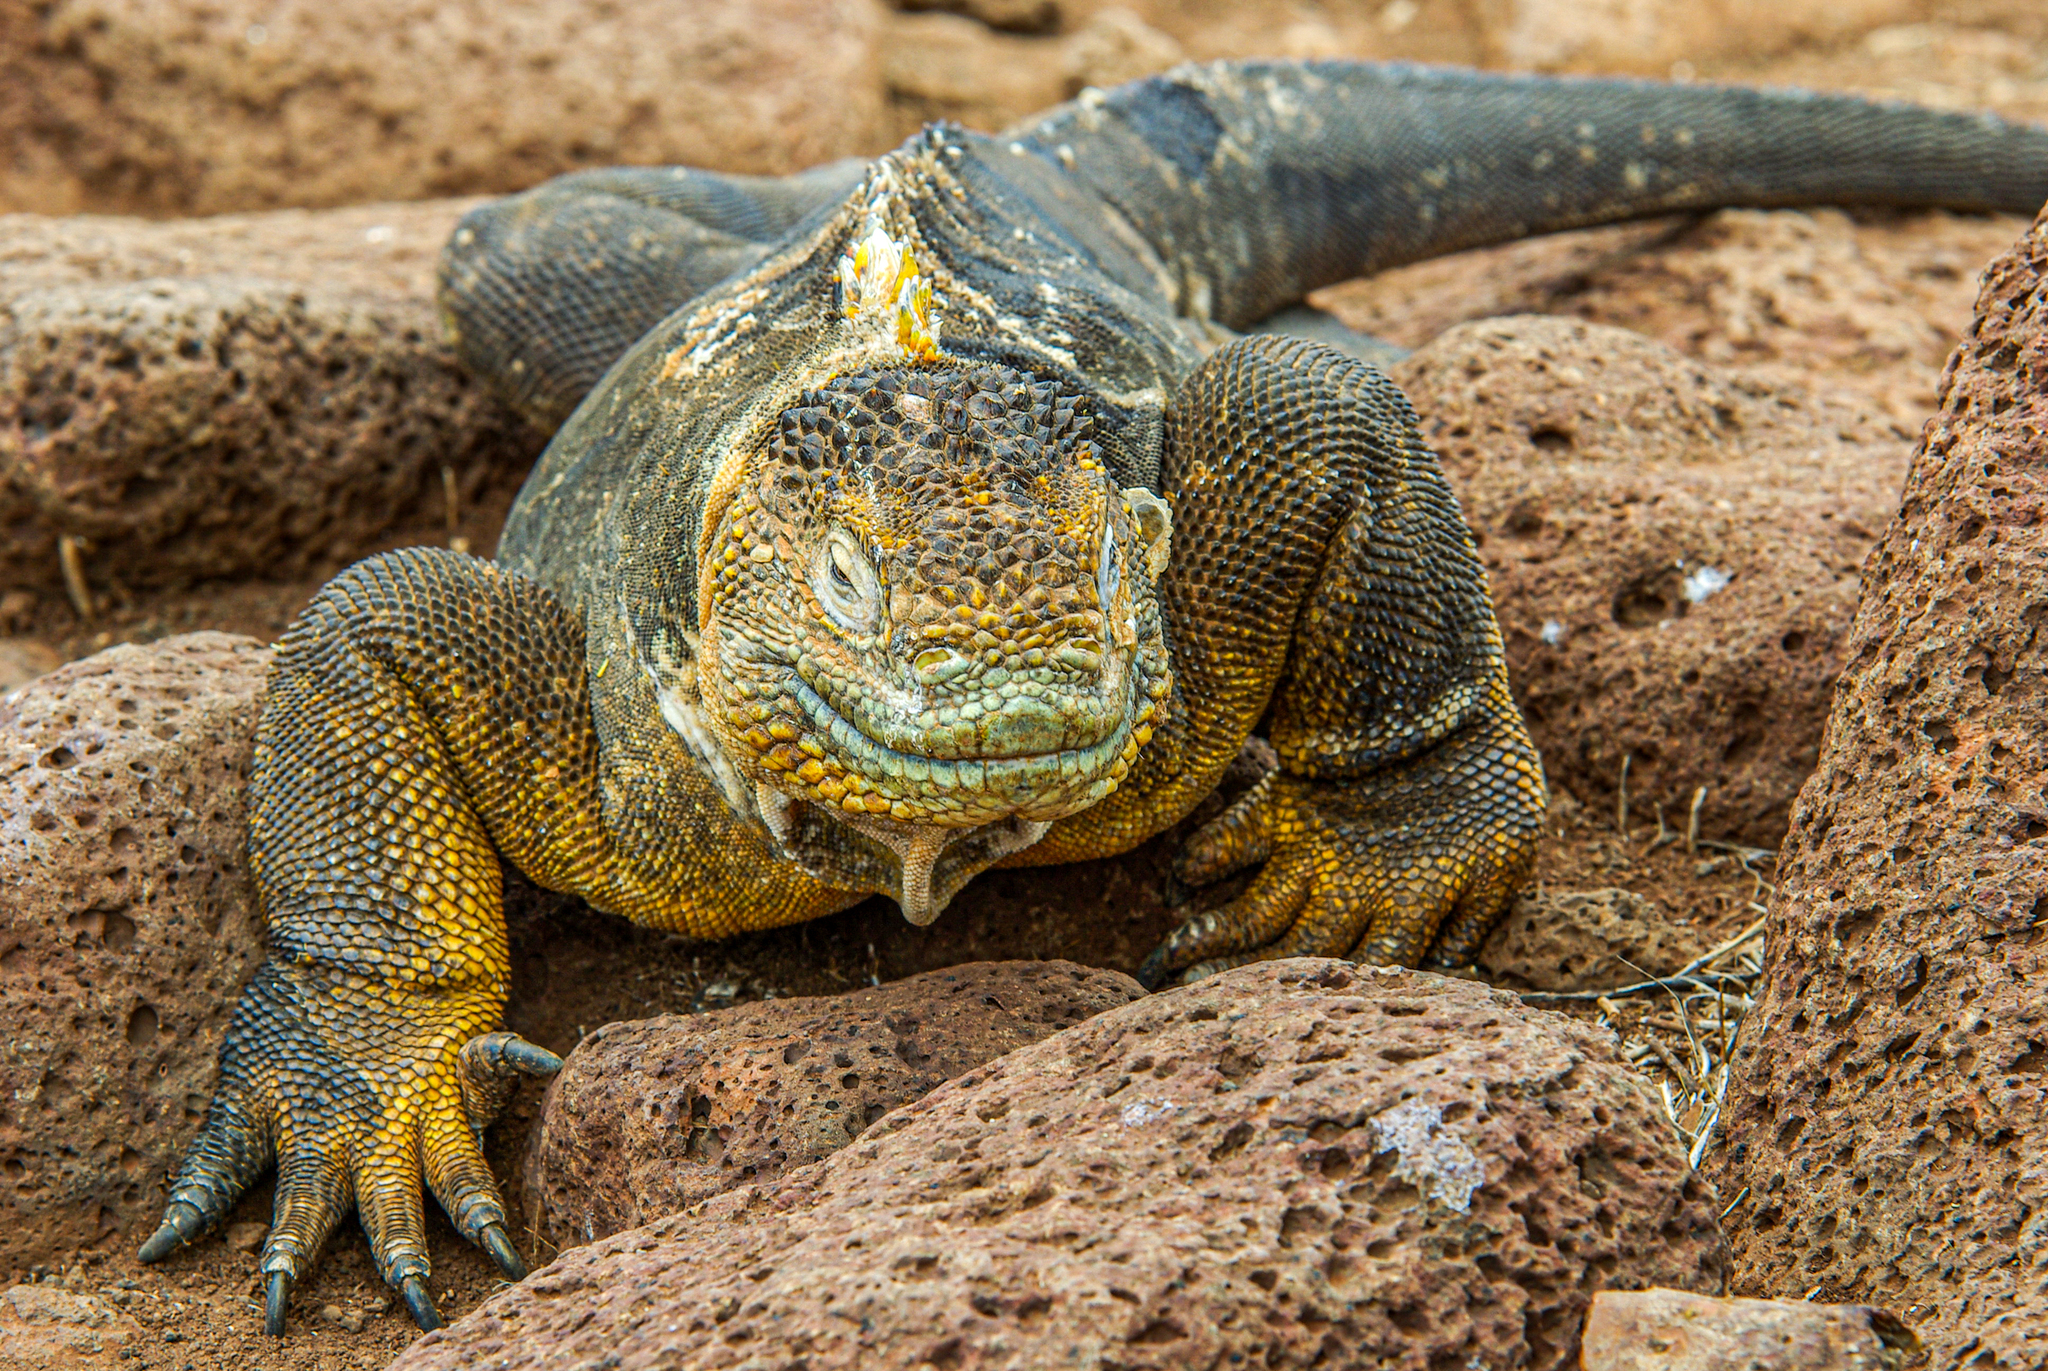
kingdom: Animalia
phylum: Chordata
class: Squamata
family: Iguanidae
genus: Conolophus
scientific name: Conolophus subcristatus
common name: Galapagos land iguana
